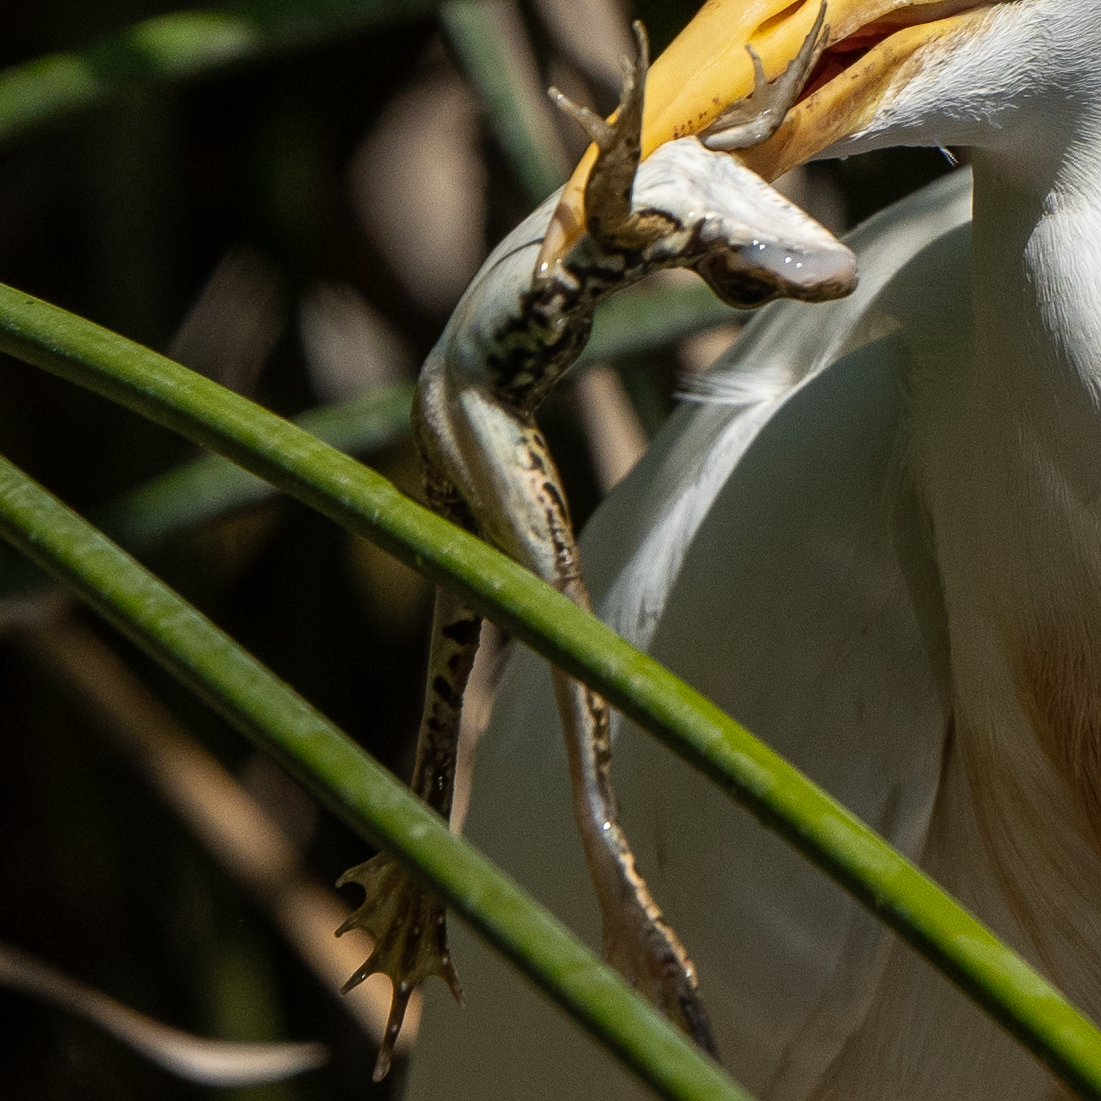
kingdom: Animalia
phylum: Chordata
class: Amphibia
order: Anura
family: Ranidae
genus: Pelophylax
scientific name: Pelophylax perezi
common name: Perez's frog
